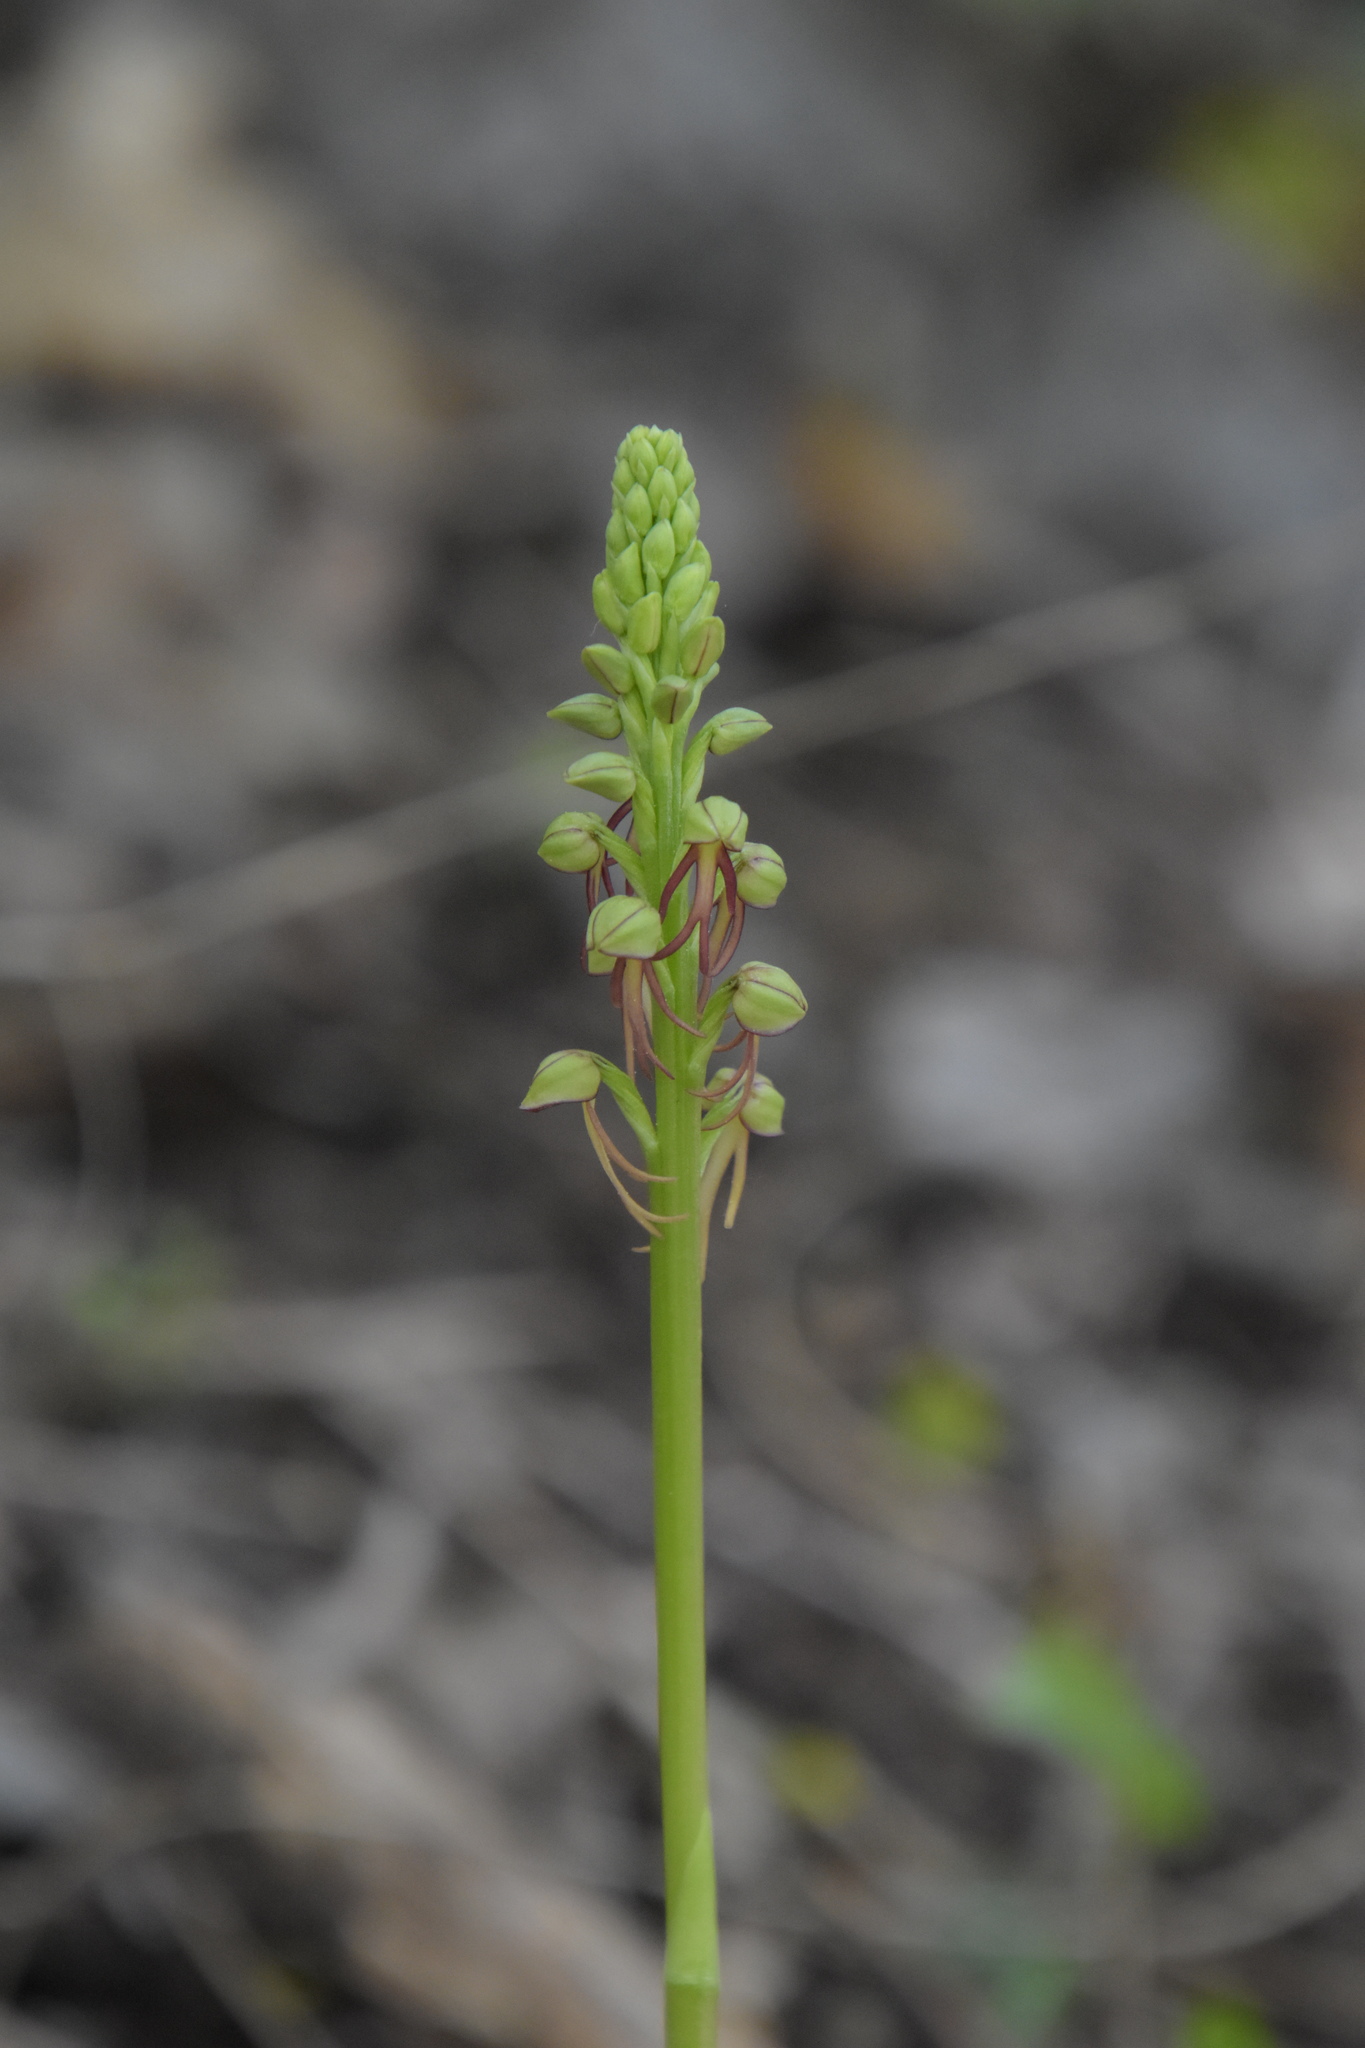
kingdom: Plantae
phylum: Tracheophyta
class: Liliopsida
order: Asparagales
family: Orchidaceae
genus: Orchis
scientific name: Orchis anthropophora
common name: Man orchid
